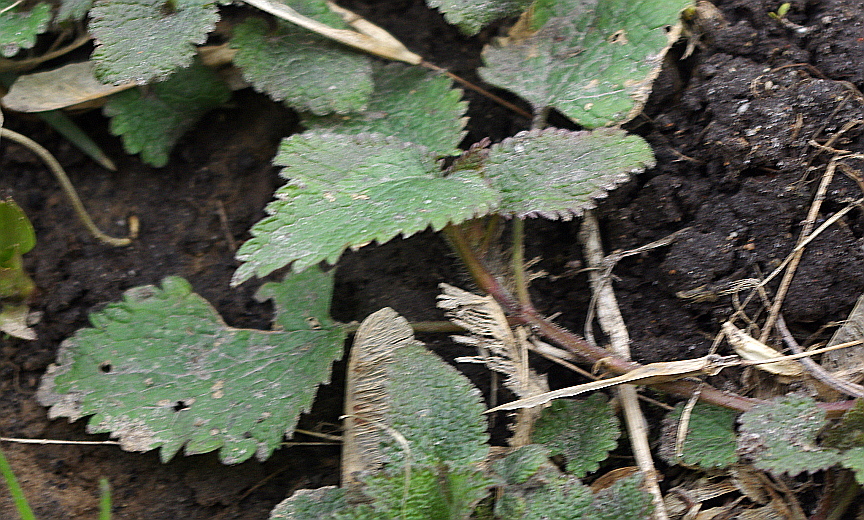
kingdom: Plantae
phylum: Tracheophyta
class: Magnoliopsida
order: Lamiales
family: Lamiaceae
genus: Lamium
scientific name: Lamium album
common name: White dead-nettle
